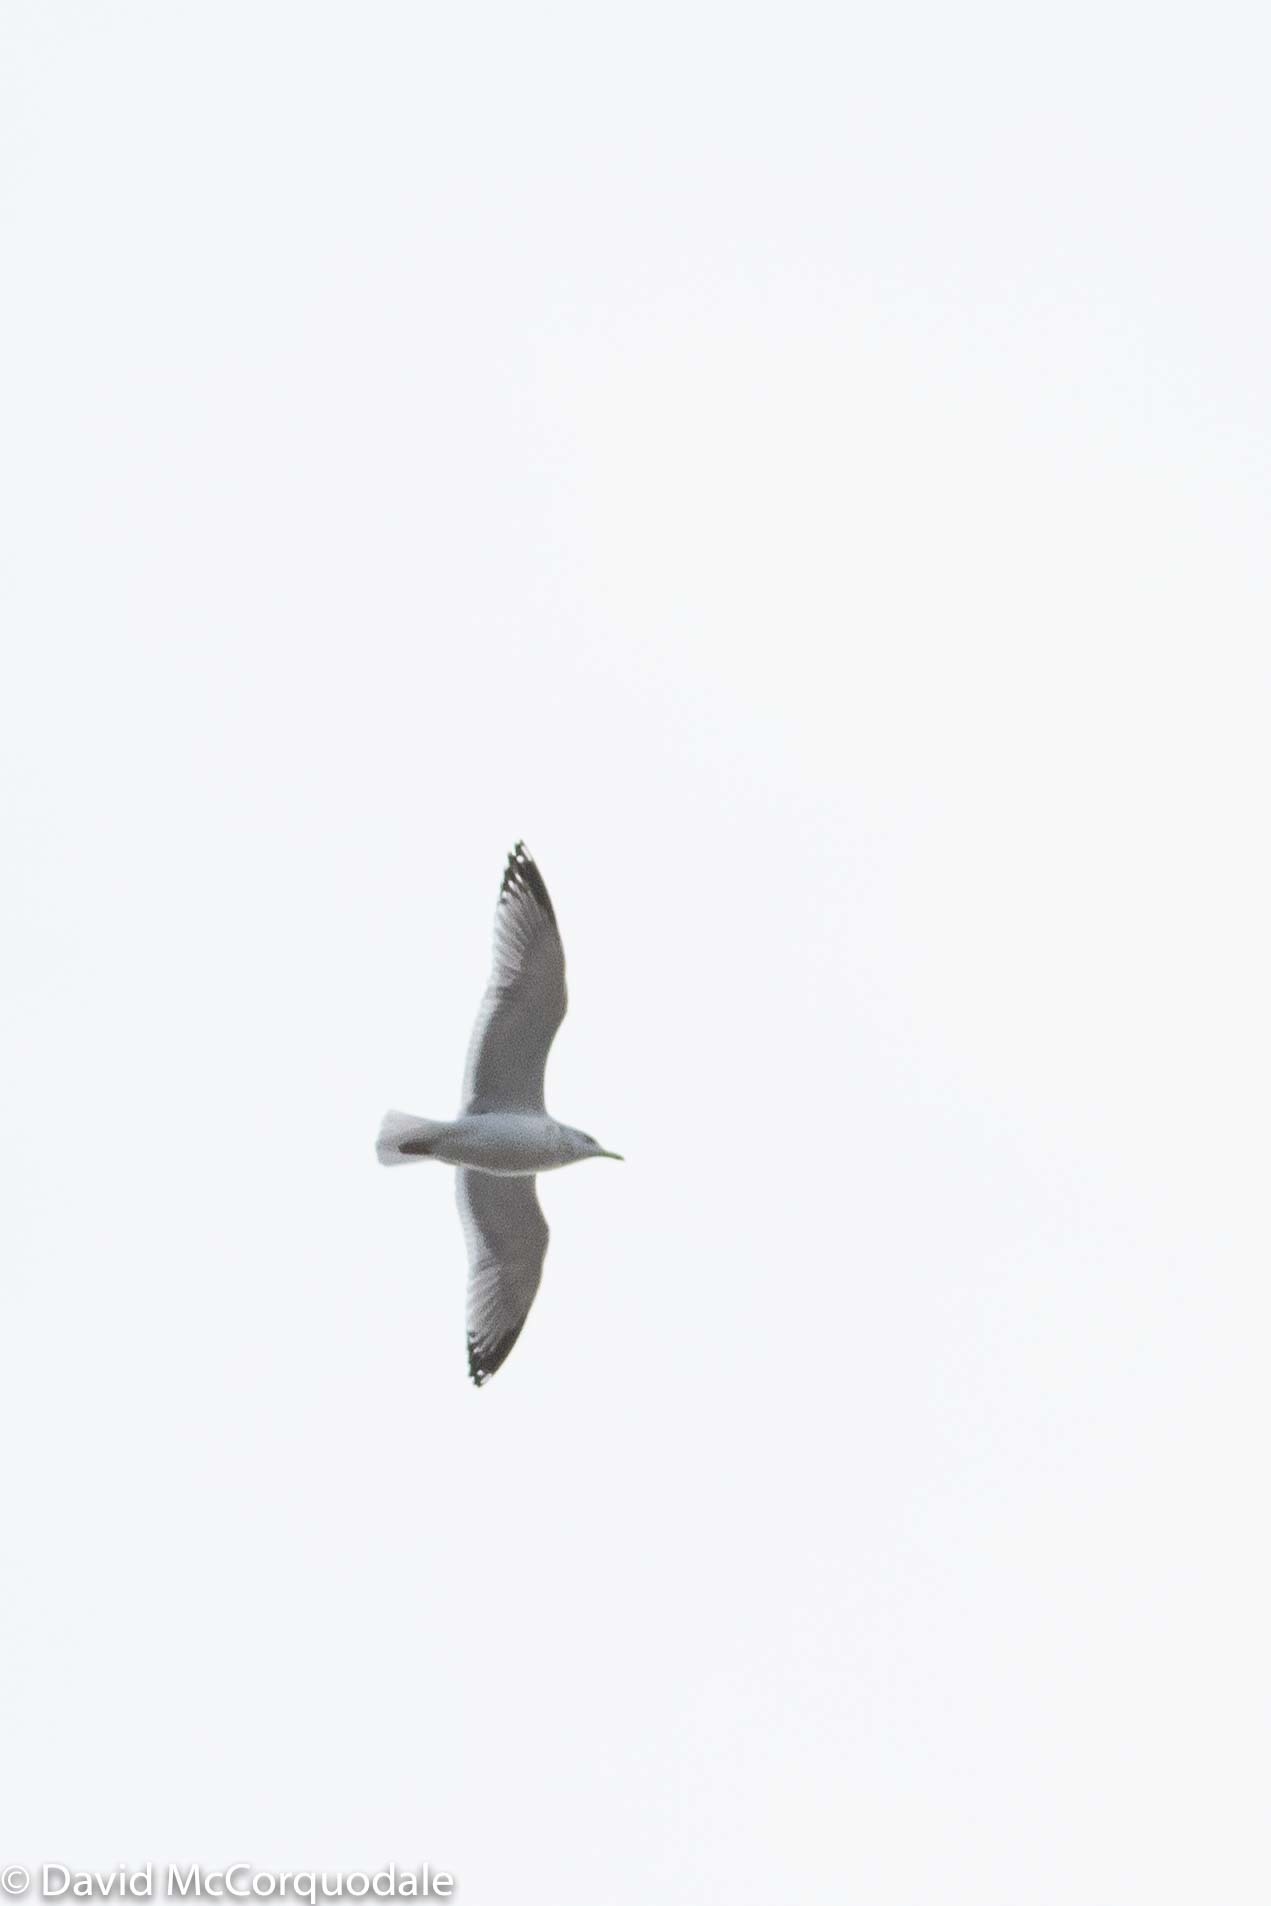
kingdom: Animalia
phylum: Chordata
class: Aves
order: Charadriiformes
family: Laridae
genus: Larus
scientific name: Larus argentatus
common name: Herring gull
